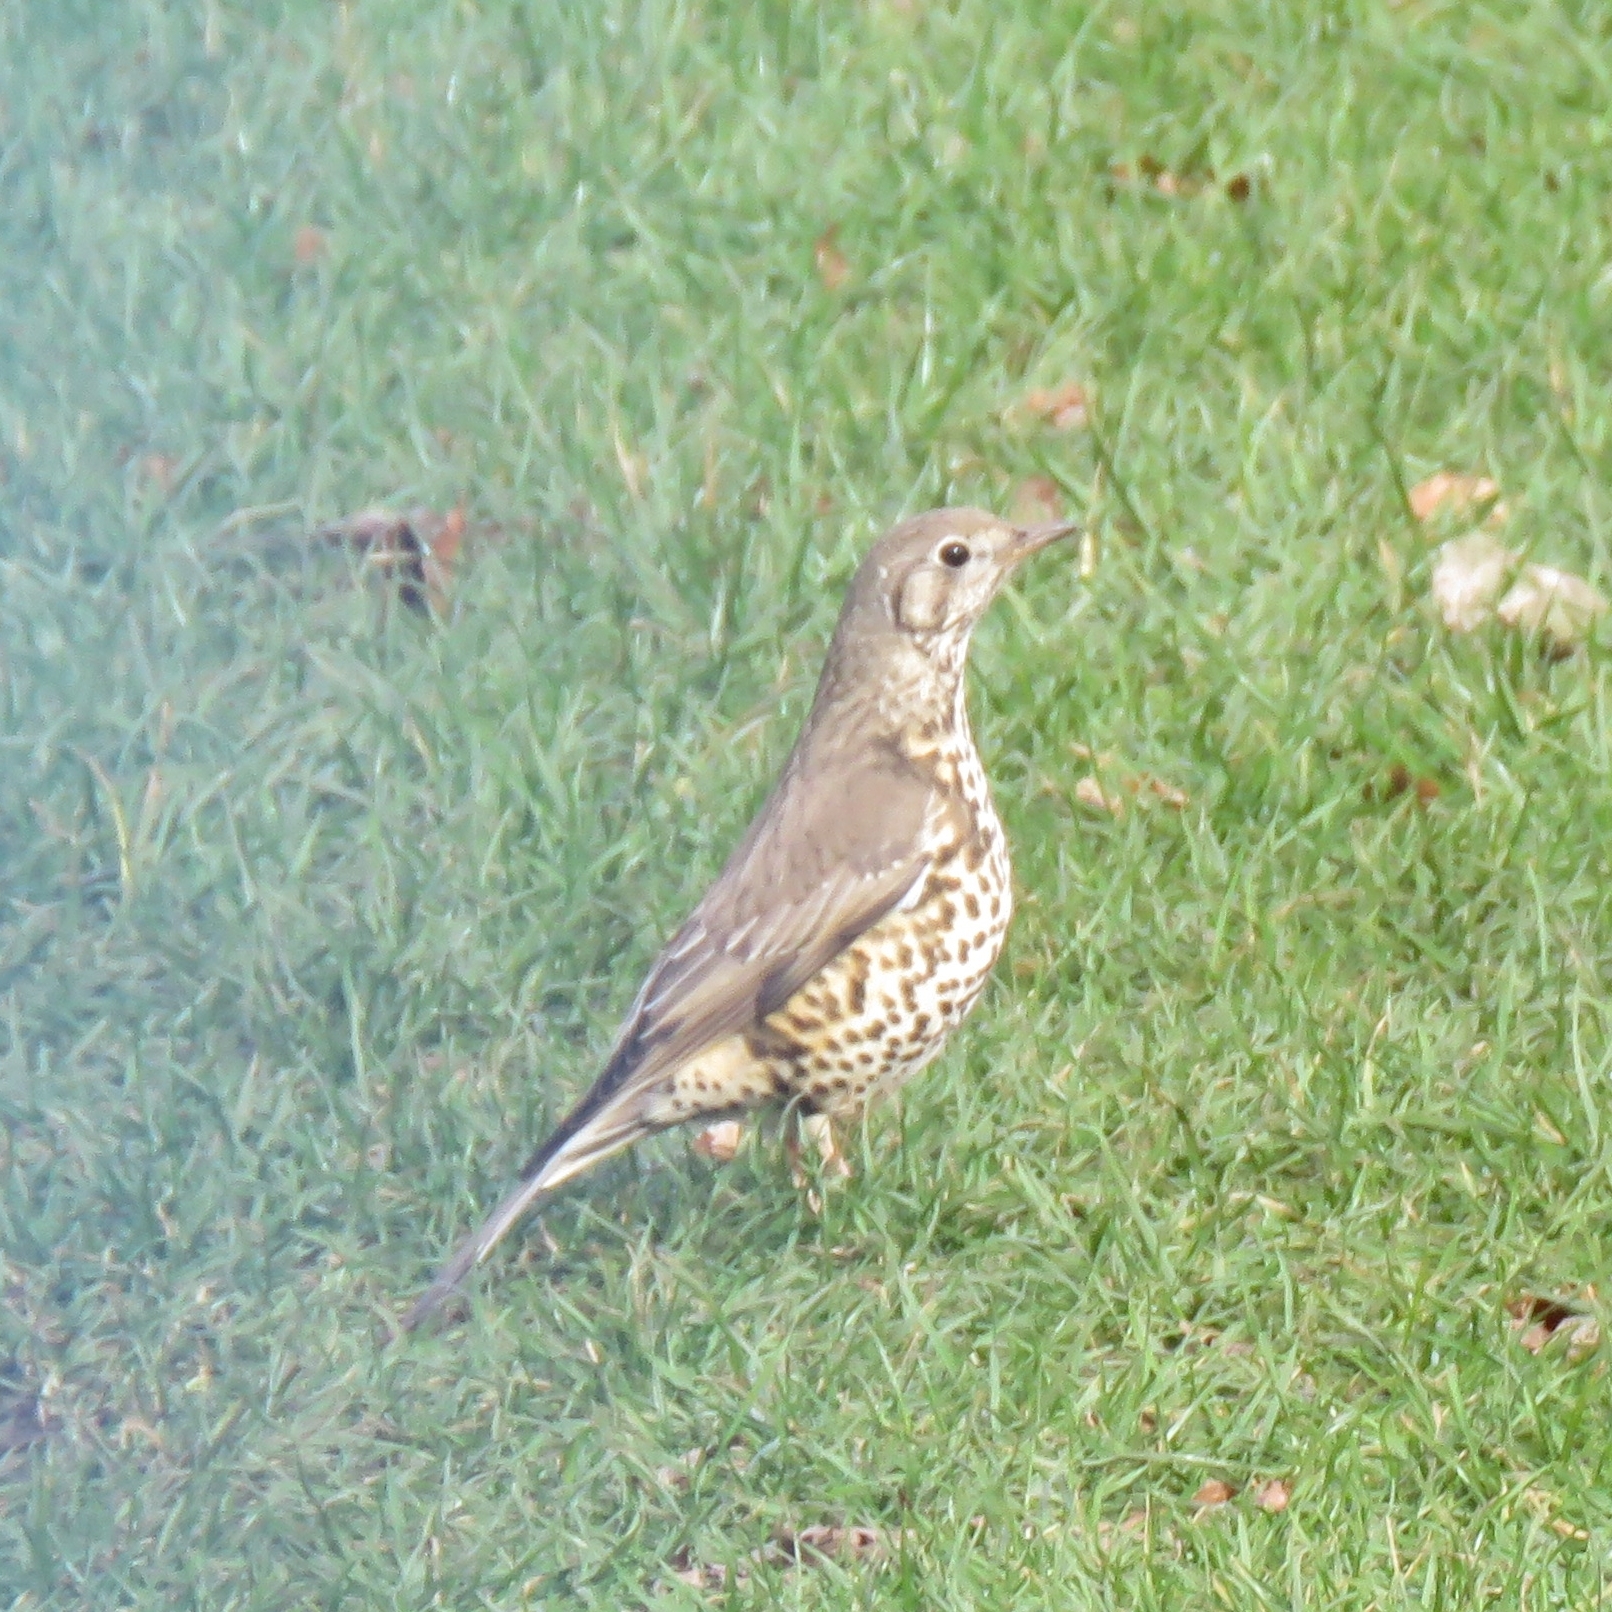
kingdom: Animalia
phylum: Chordata
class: Aves
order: Passeriformes
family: Turdidae
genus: Turdus
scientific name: Turdus viscivorus
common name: Mistle thrush
